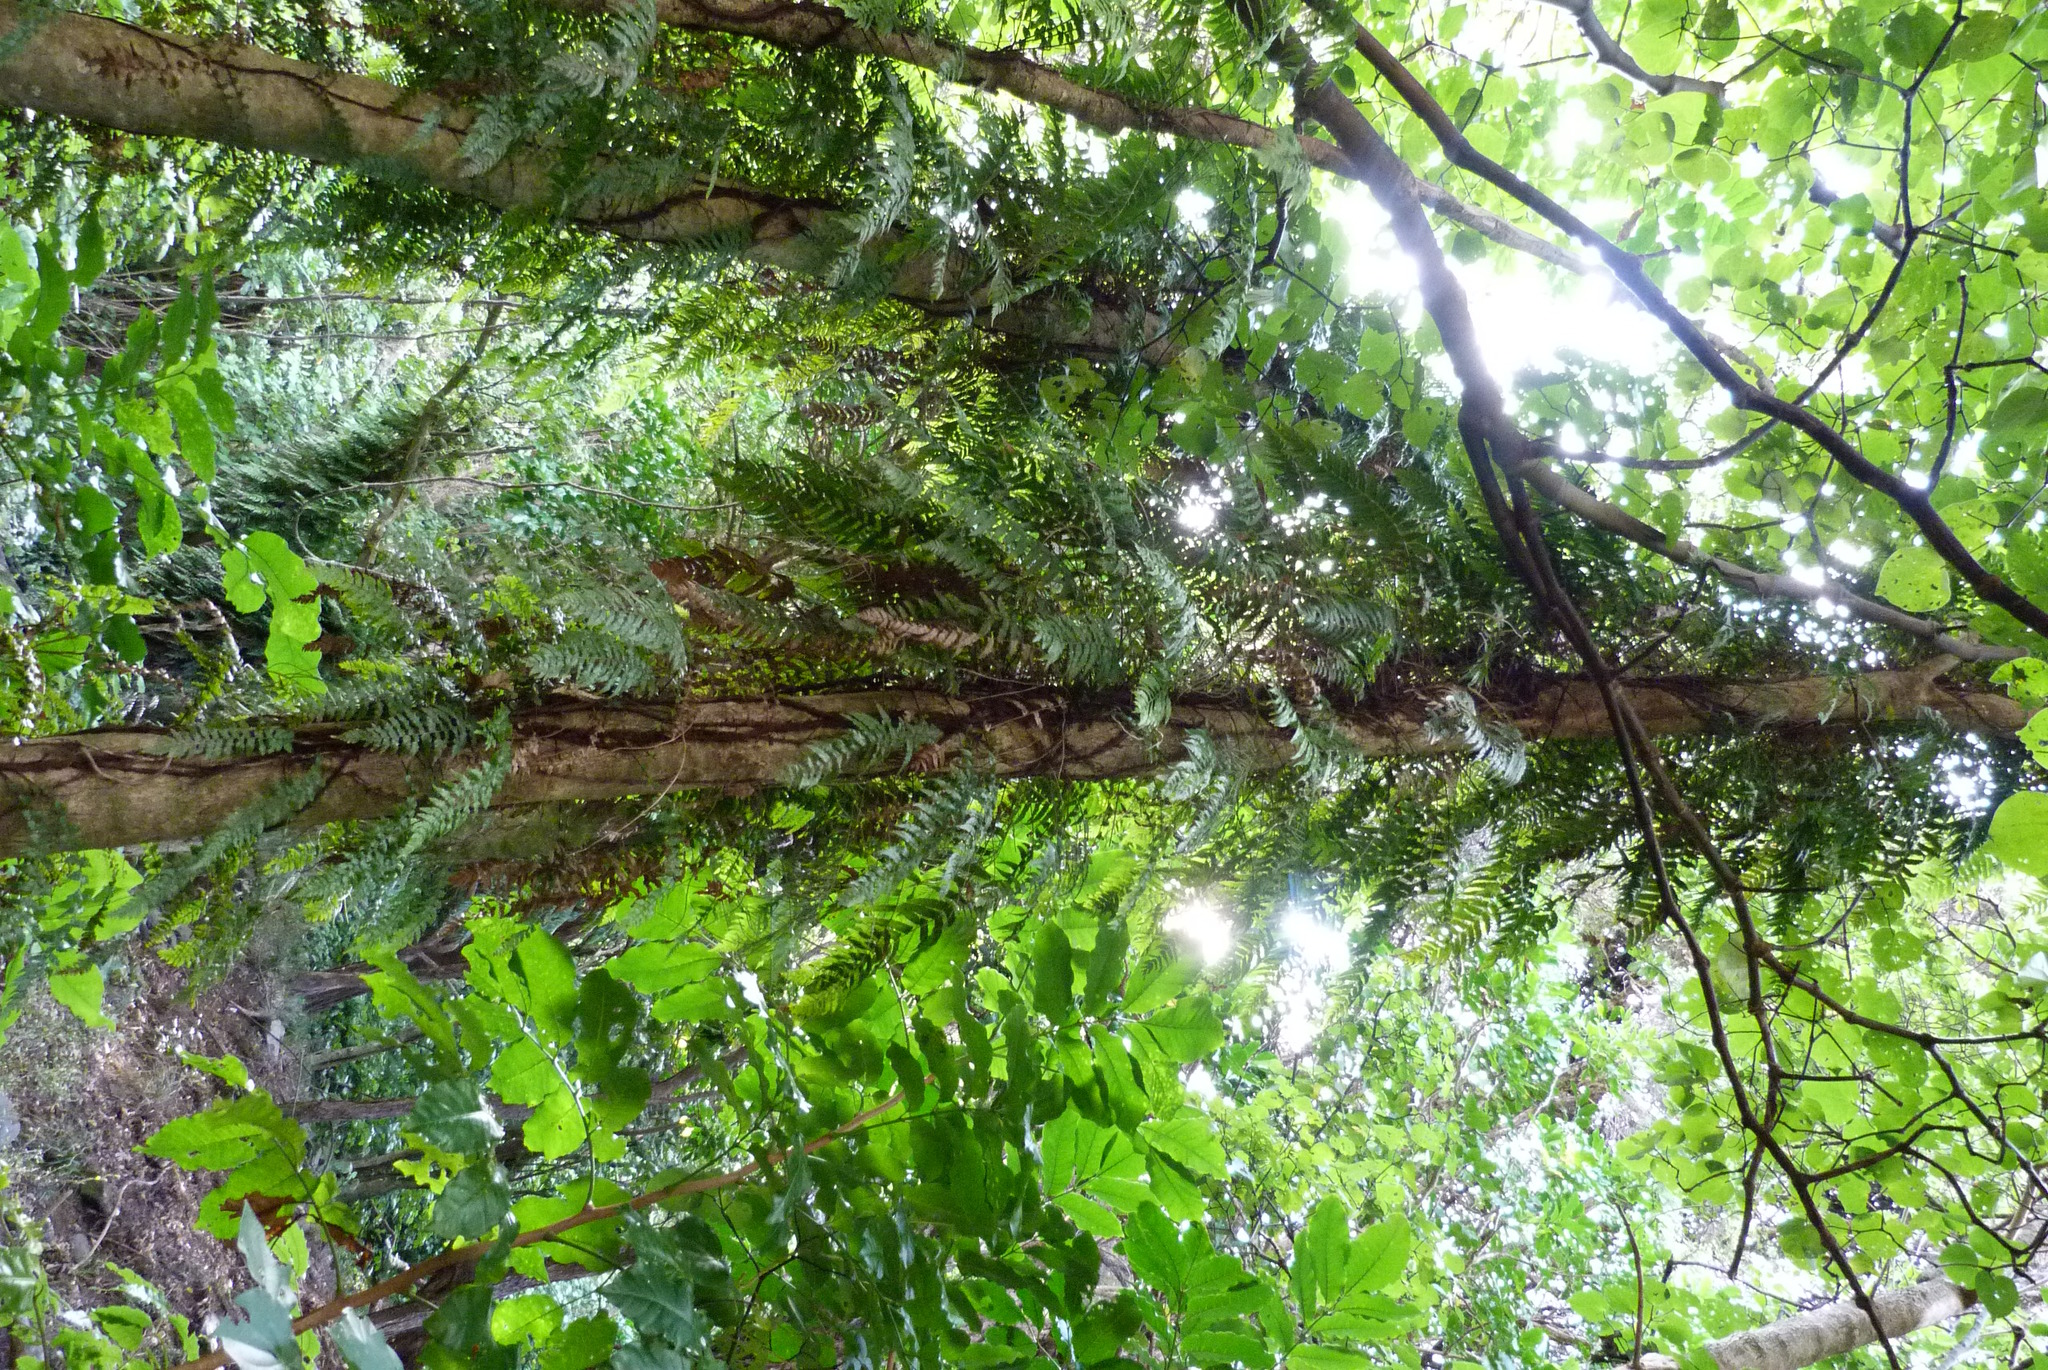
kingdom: Plantae
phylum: Tracheophyta
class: Polypodiopsida
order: Polypodiales
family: Blechnaceae
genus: Icarus
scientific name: Icarus filiformis
